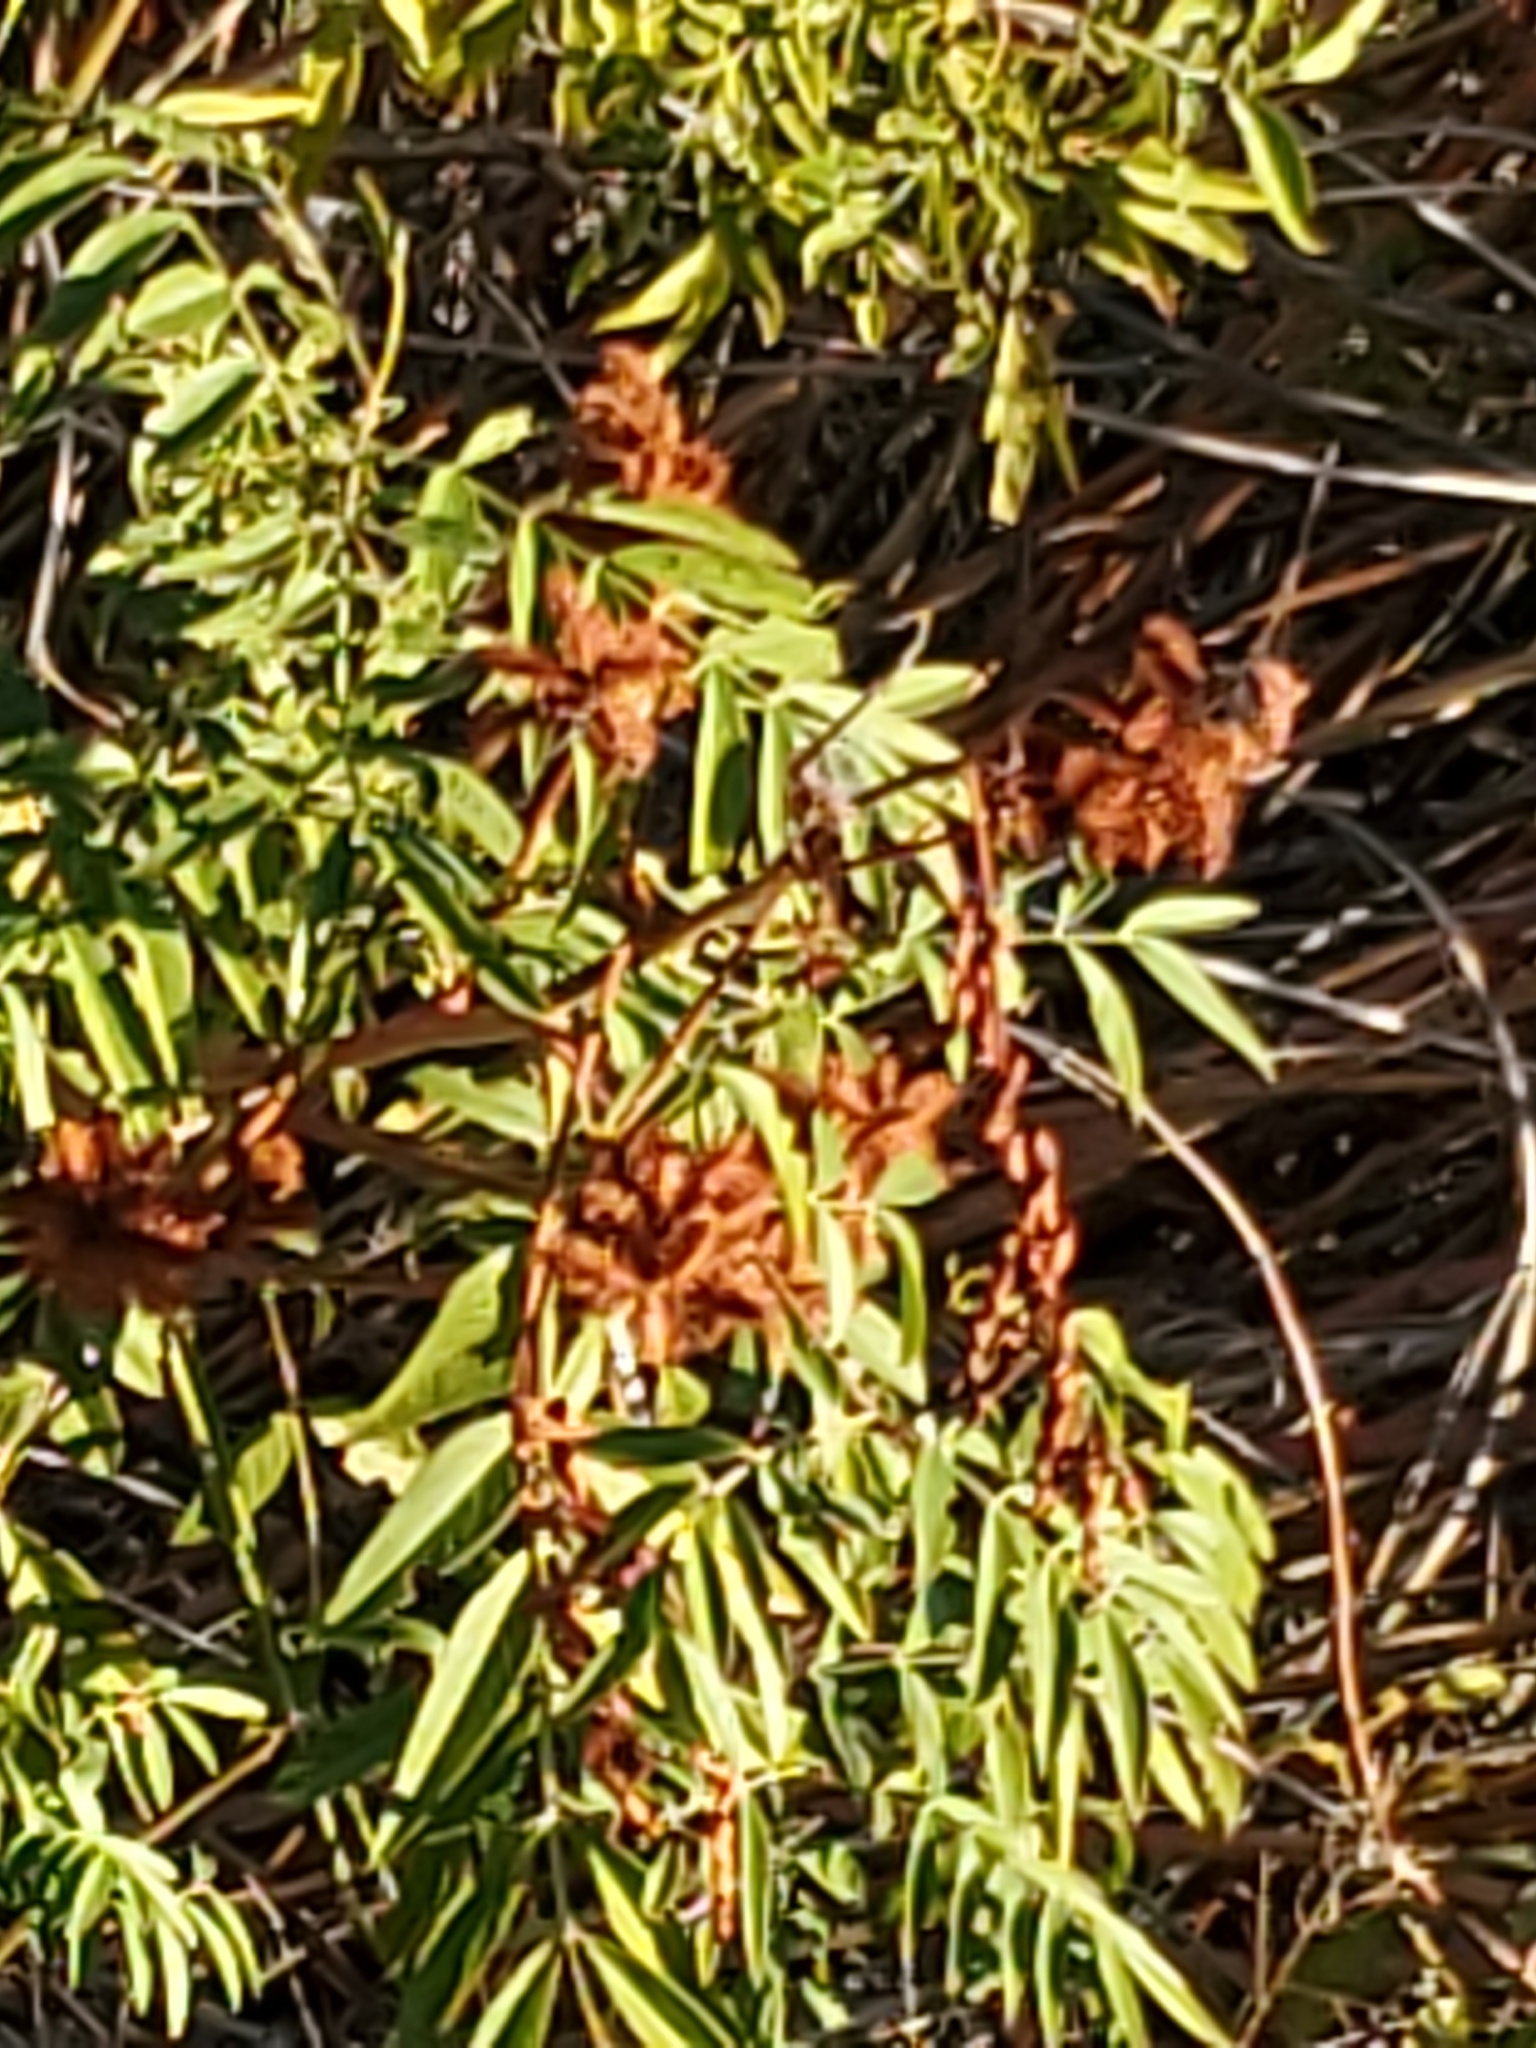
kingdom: Plantae
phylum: Tracheophyta
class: Magnoliopsida
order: Fabales
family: Fabaceae
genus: Glycyrrhiza
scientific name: Glycyrrhiza lepidota
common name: American liquorice
